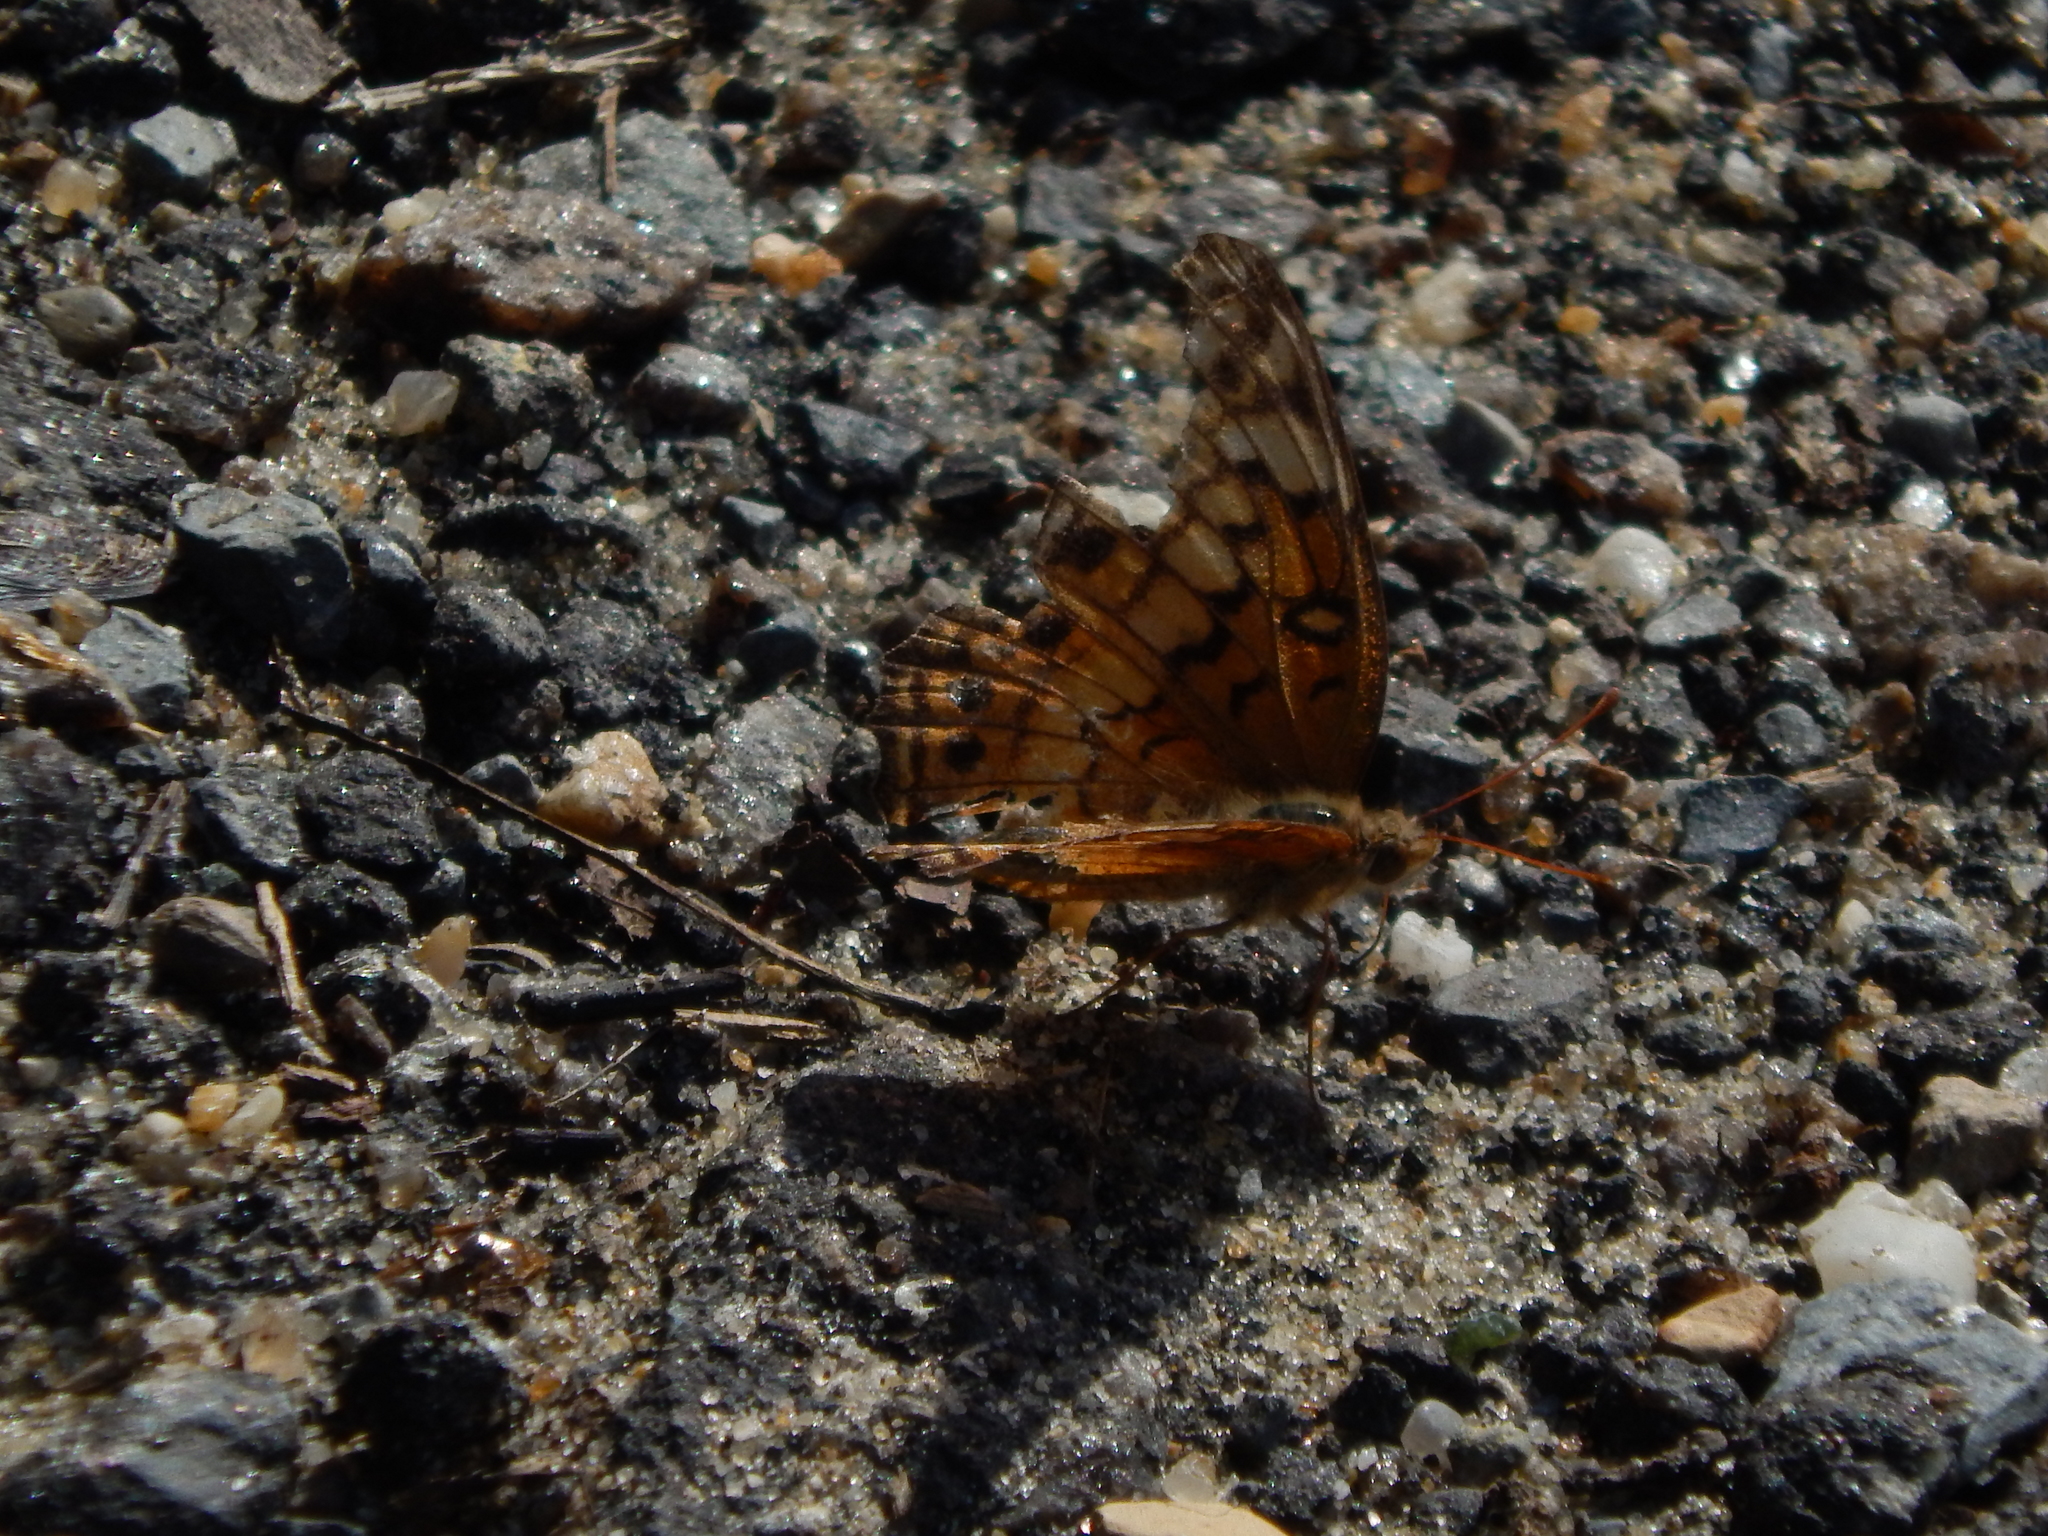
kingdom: Animalia
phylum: Arthropoda
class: Insecta
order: Lepidoptera
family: Nymphalidae
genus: Euptoieta
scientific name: Euptoieta claudia
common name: Variegated fritillary
